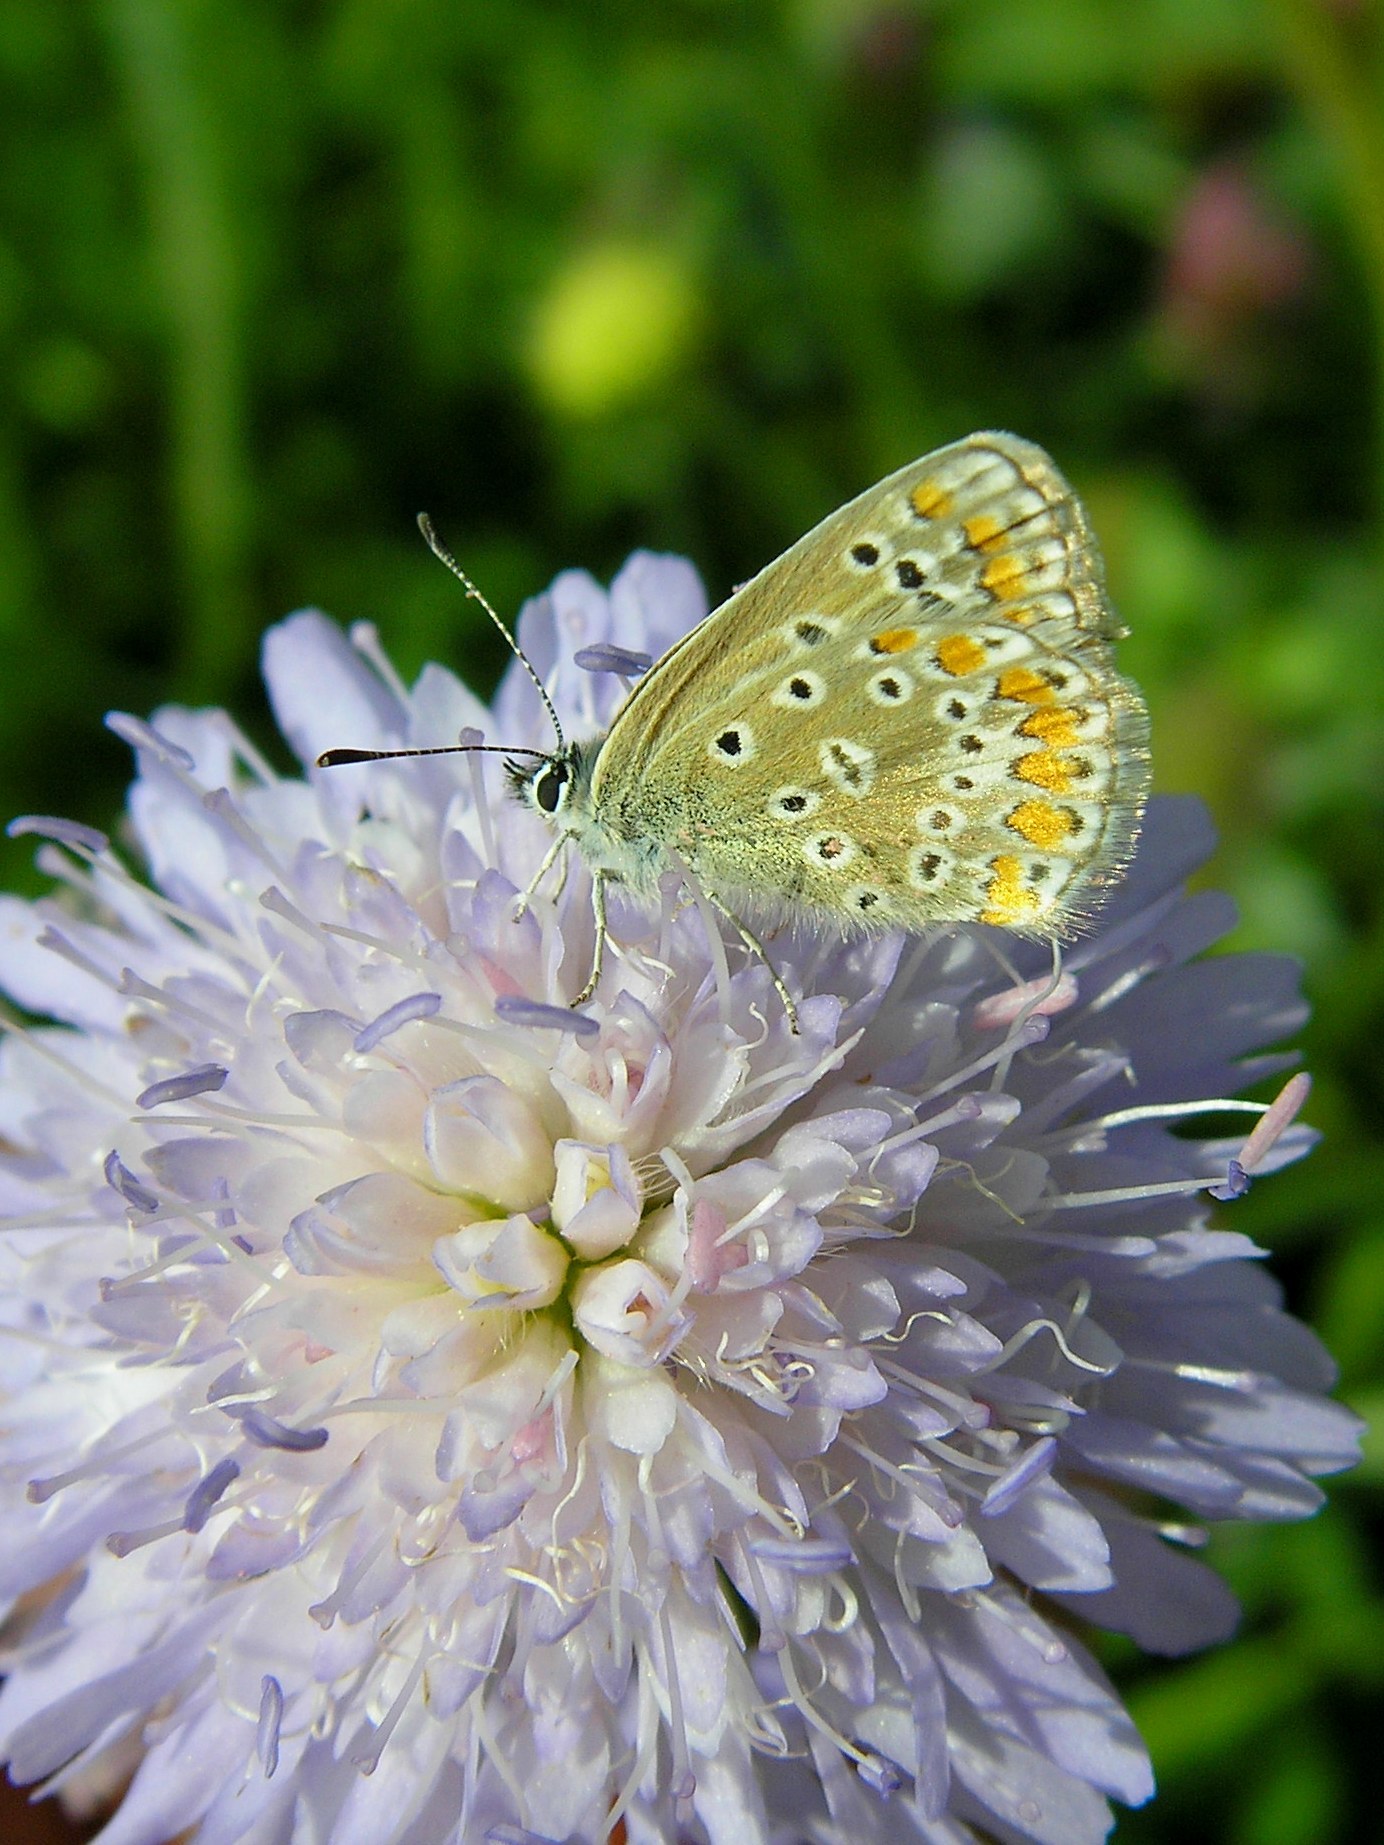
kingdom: Animalia
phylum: Arthropoda
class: Insecta
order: Lepidoptera
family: Lycaenidae
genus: Polyommatus
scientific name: Polyommatus icarus
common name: Common blue
